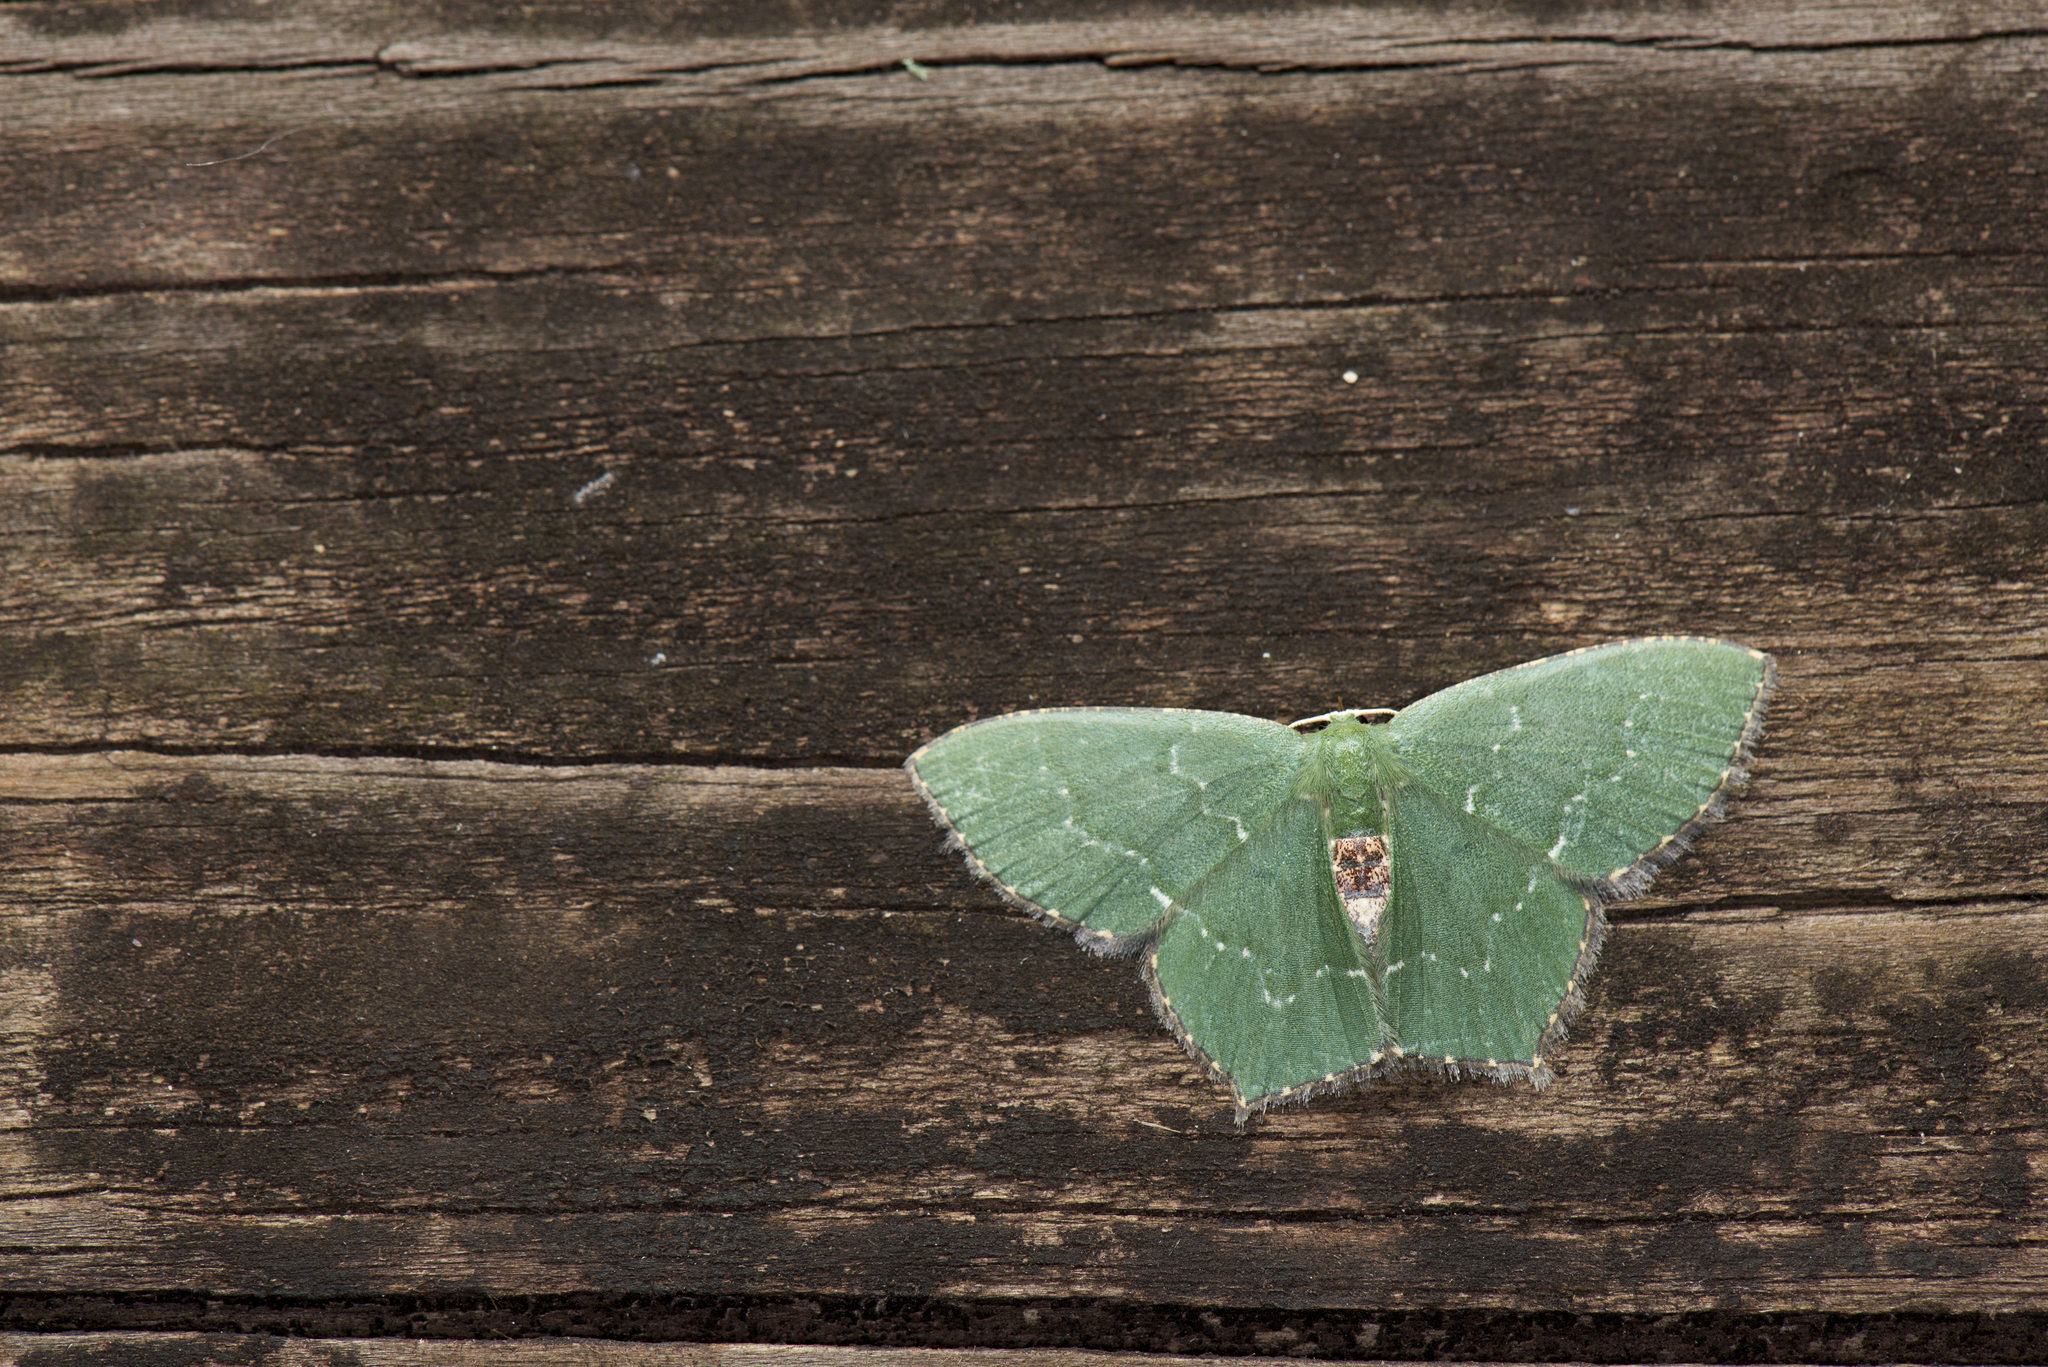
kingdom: Animalia
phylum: Arthropoda
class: Insecta
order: Lepidoptera
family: Geometridae
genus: Hemithea
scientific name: Hemithea tritonaria
